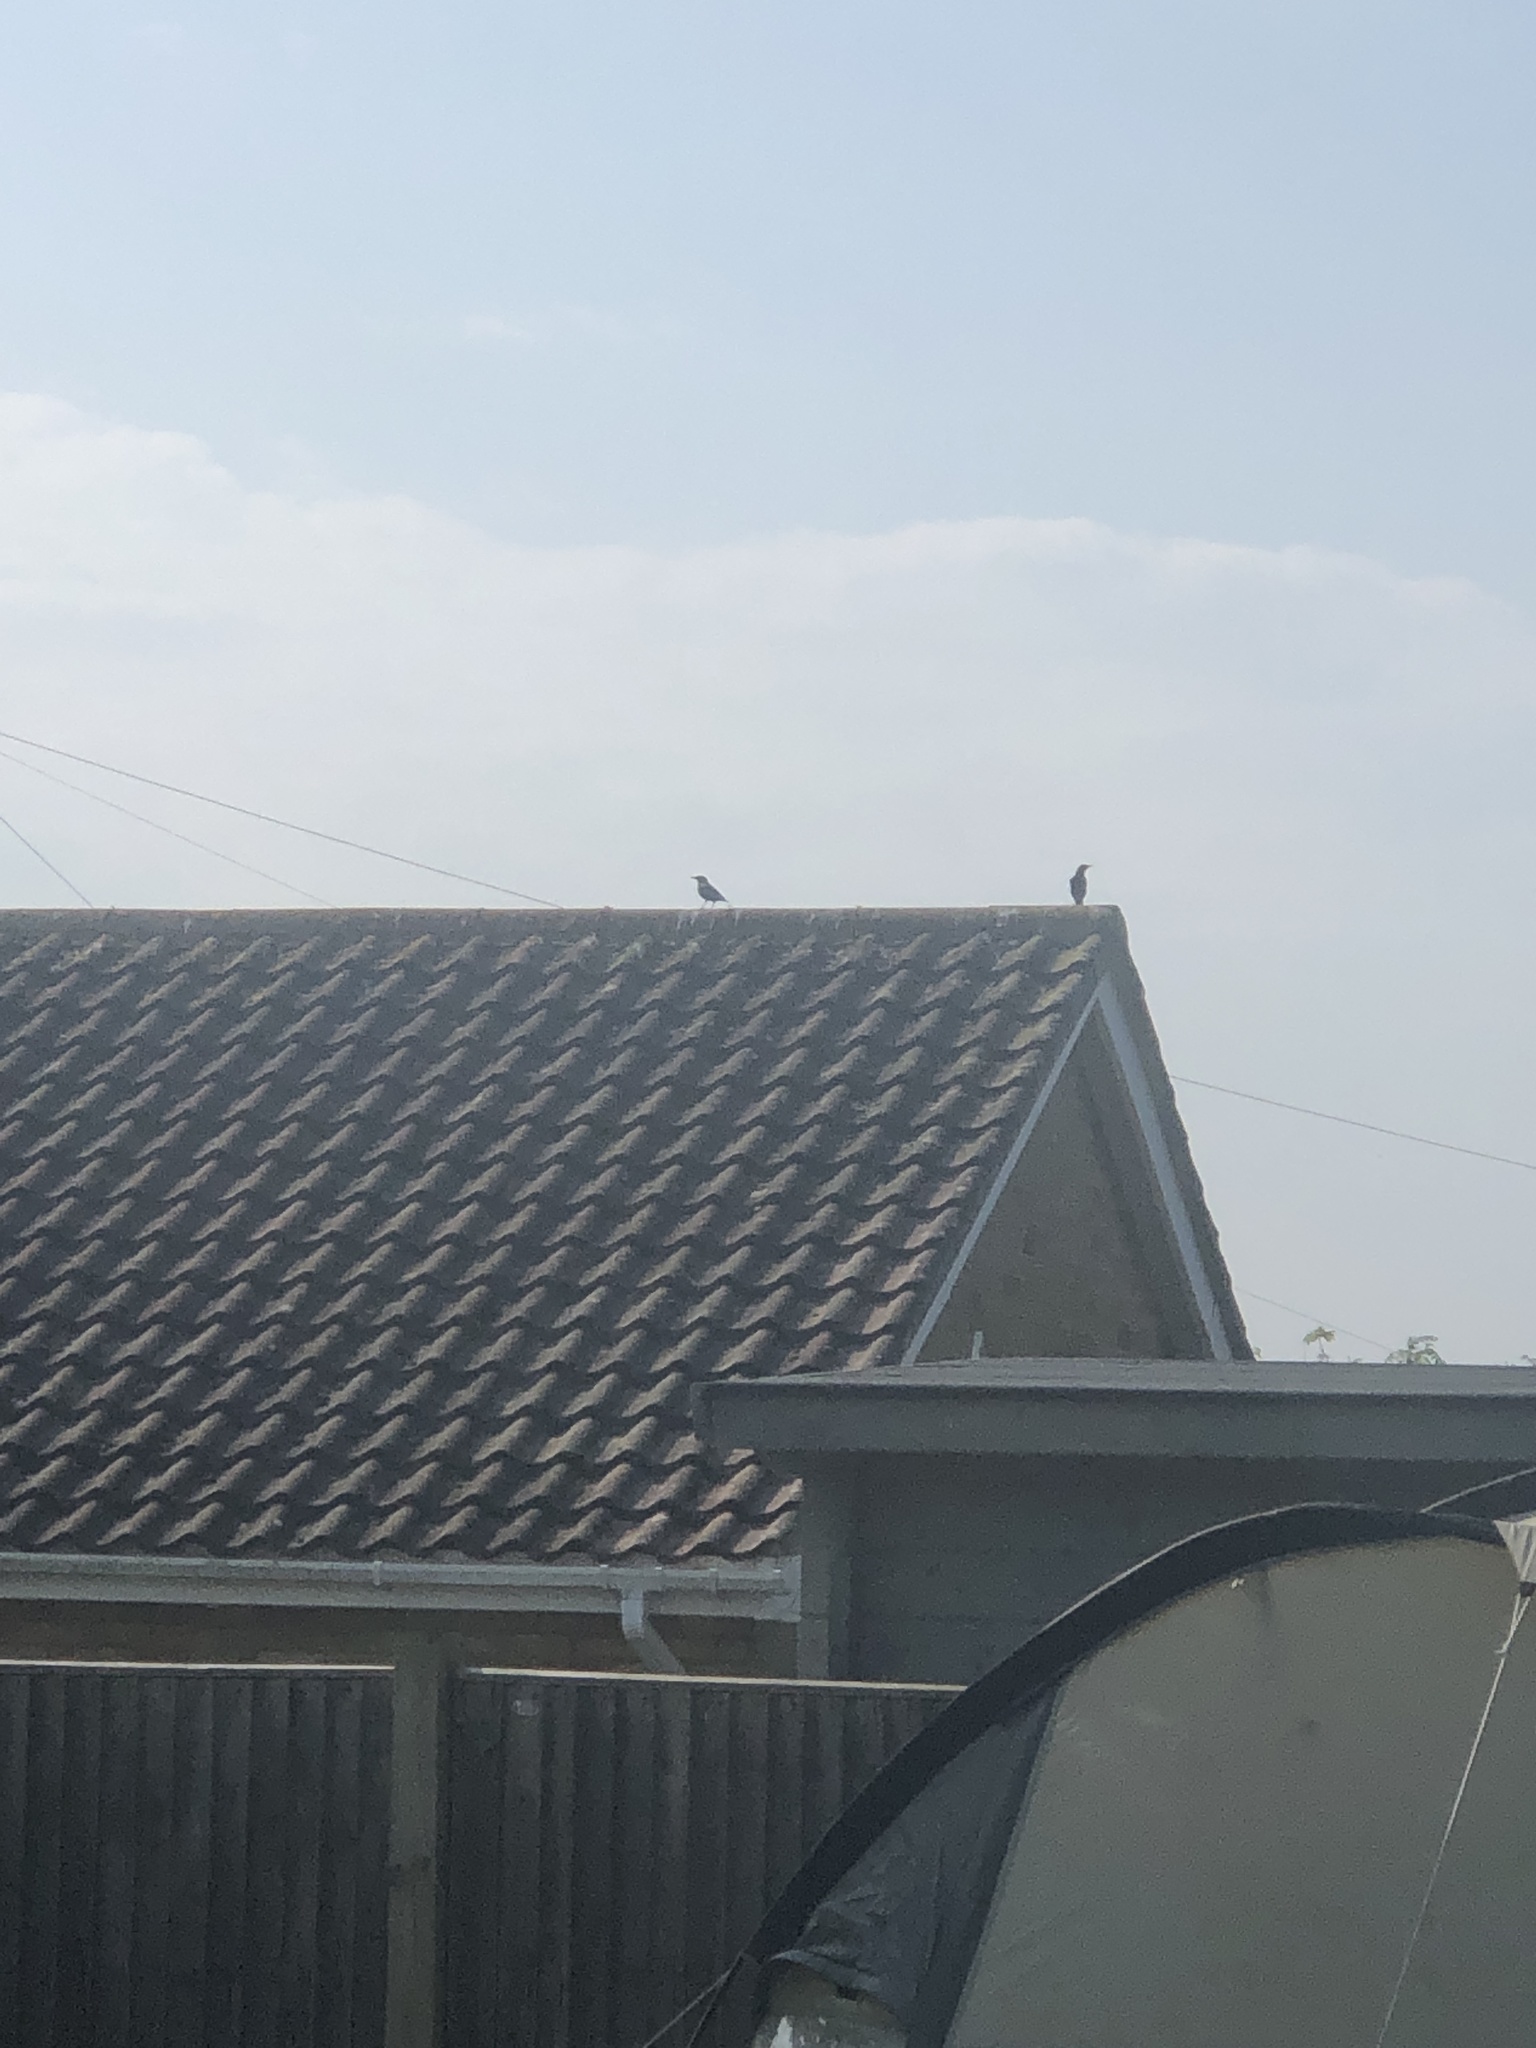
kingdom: Animalia
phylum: Chordata
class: Aves
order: Passeriformes
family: Sturnidae
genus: Sturnus
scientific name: Sturnus vulgaris
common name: Common starling
